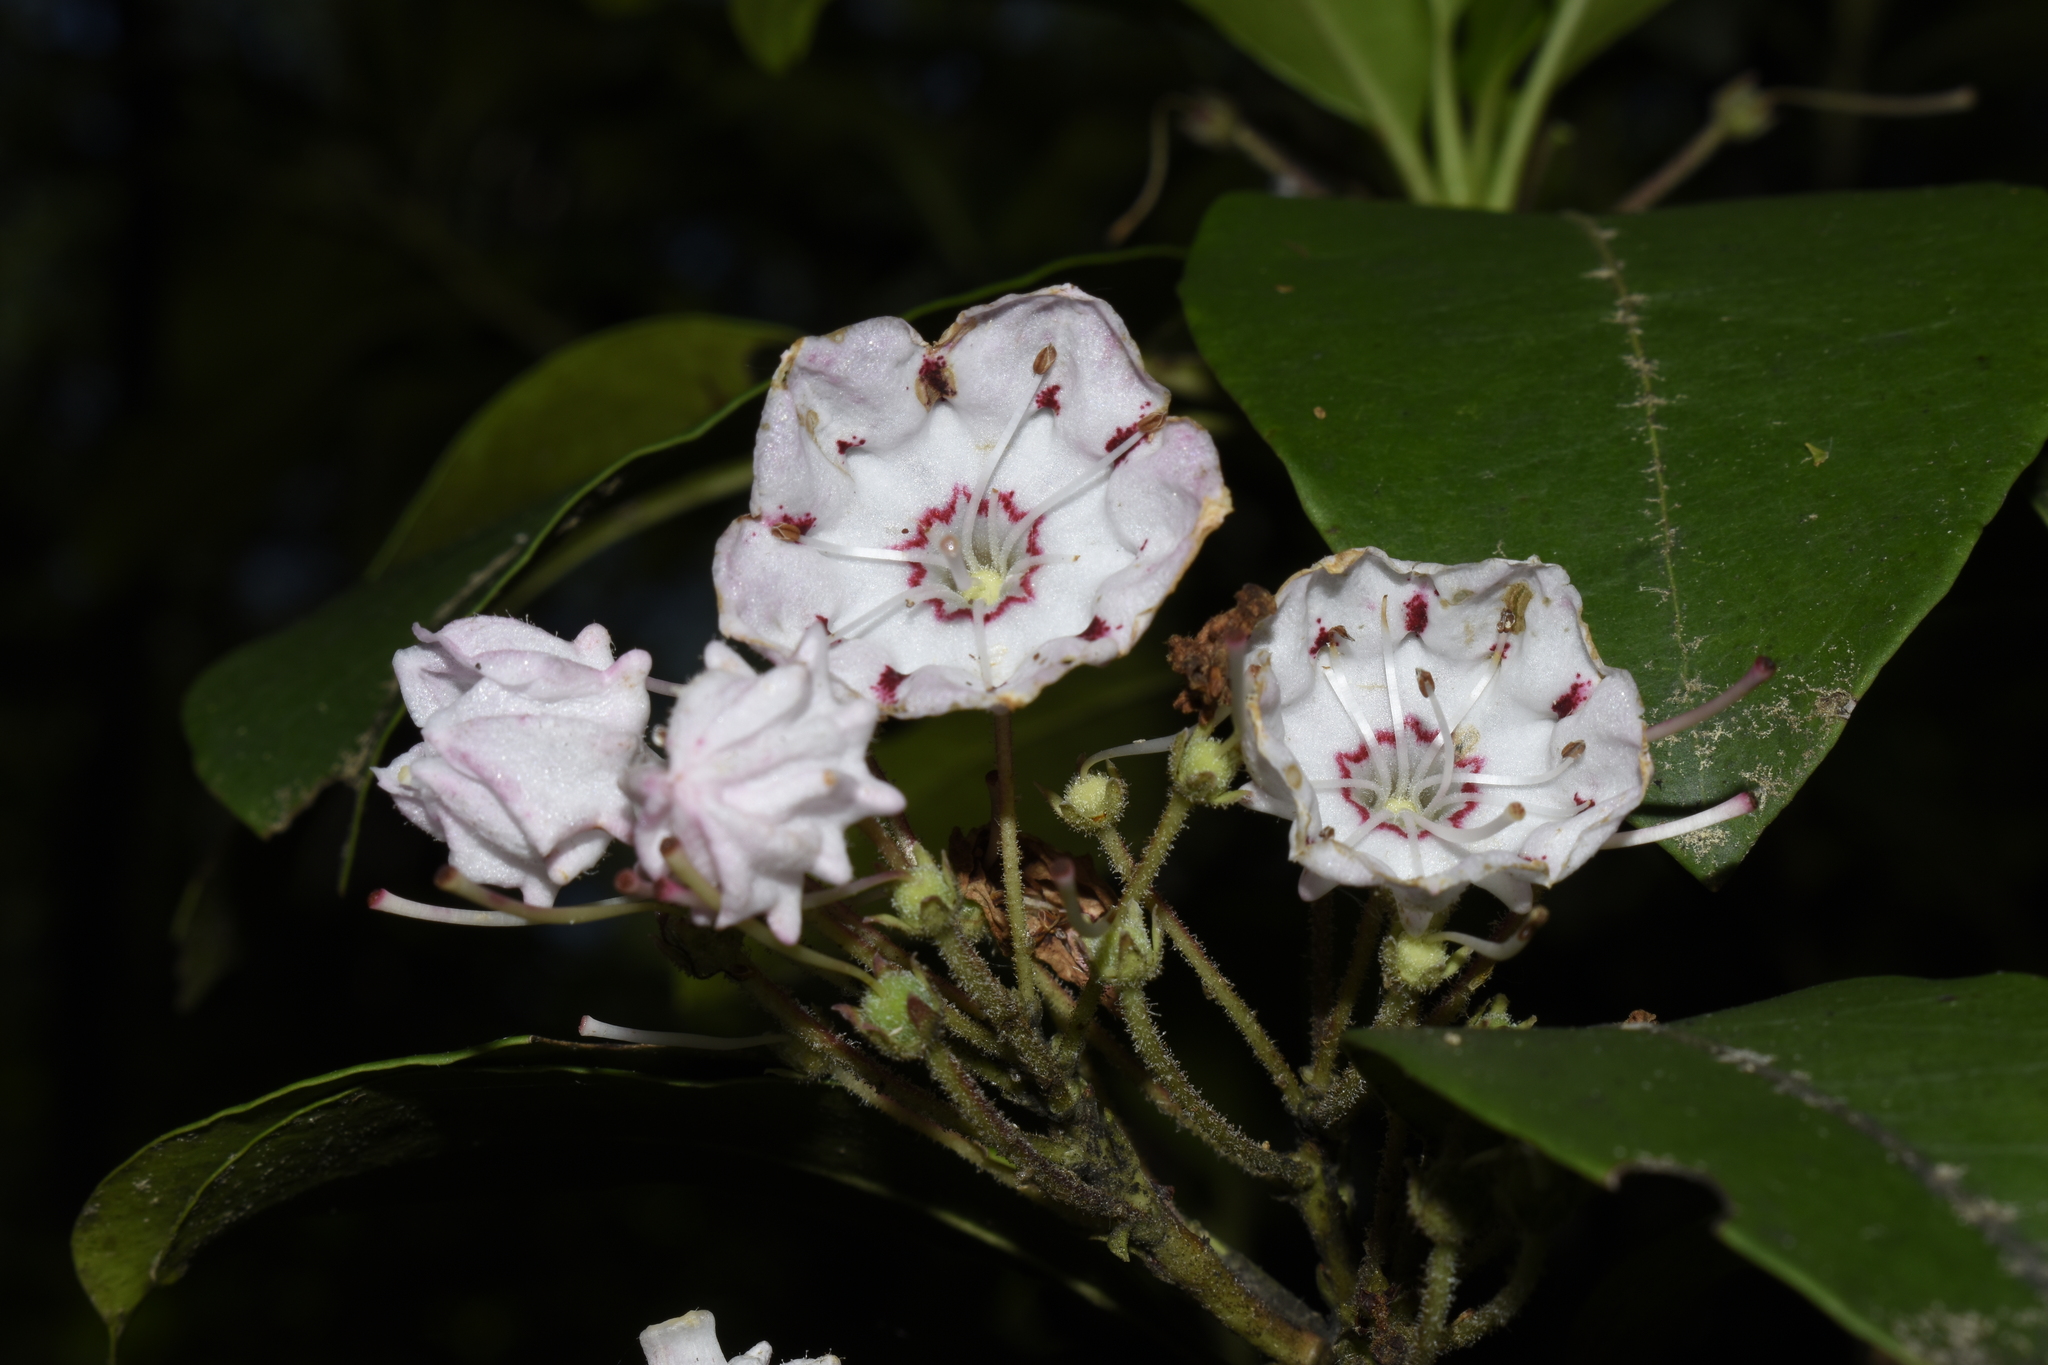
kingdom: Plantae
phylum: Tracheophyta
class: Magnoliopsida
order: Ericales
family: Ericaceae
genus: Kalmia
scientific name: Kalmia latifolia
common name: Mountain-laurel
